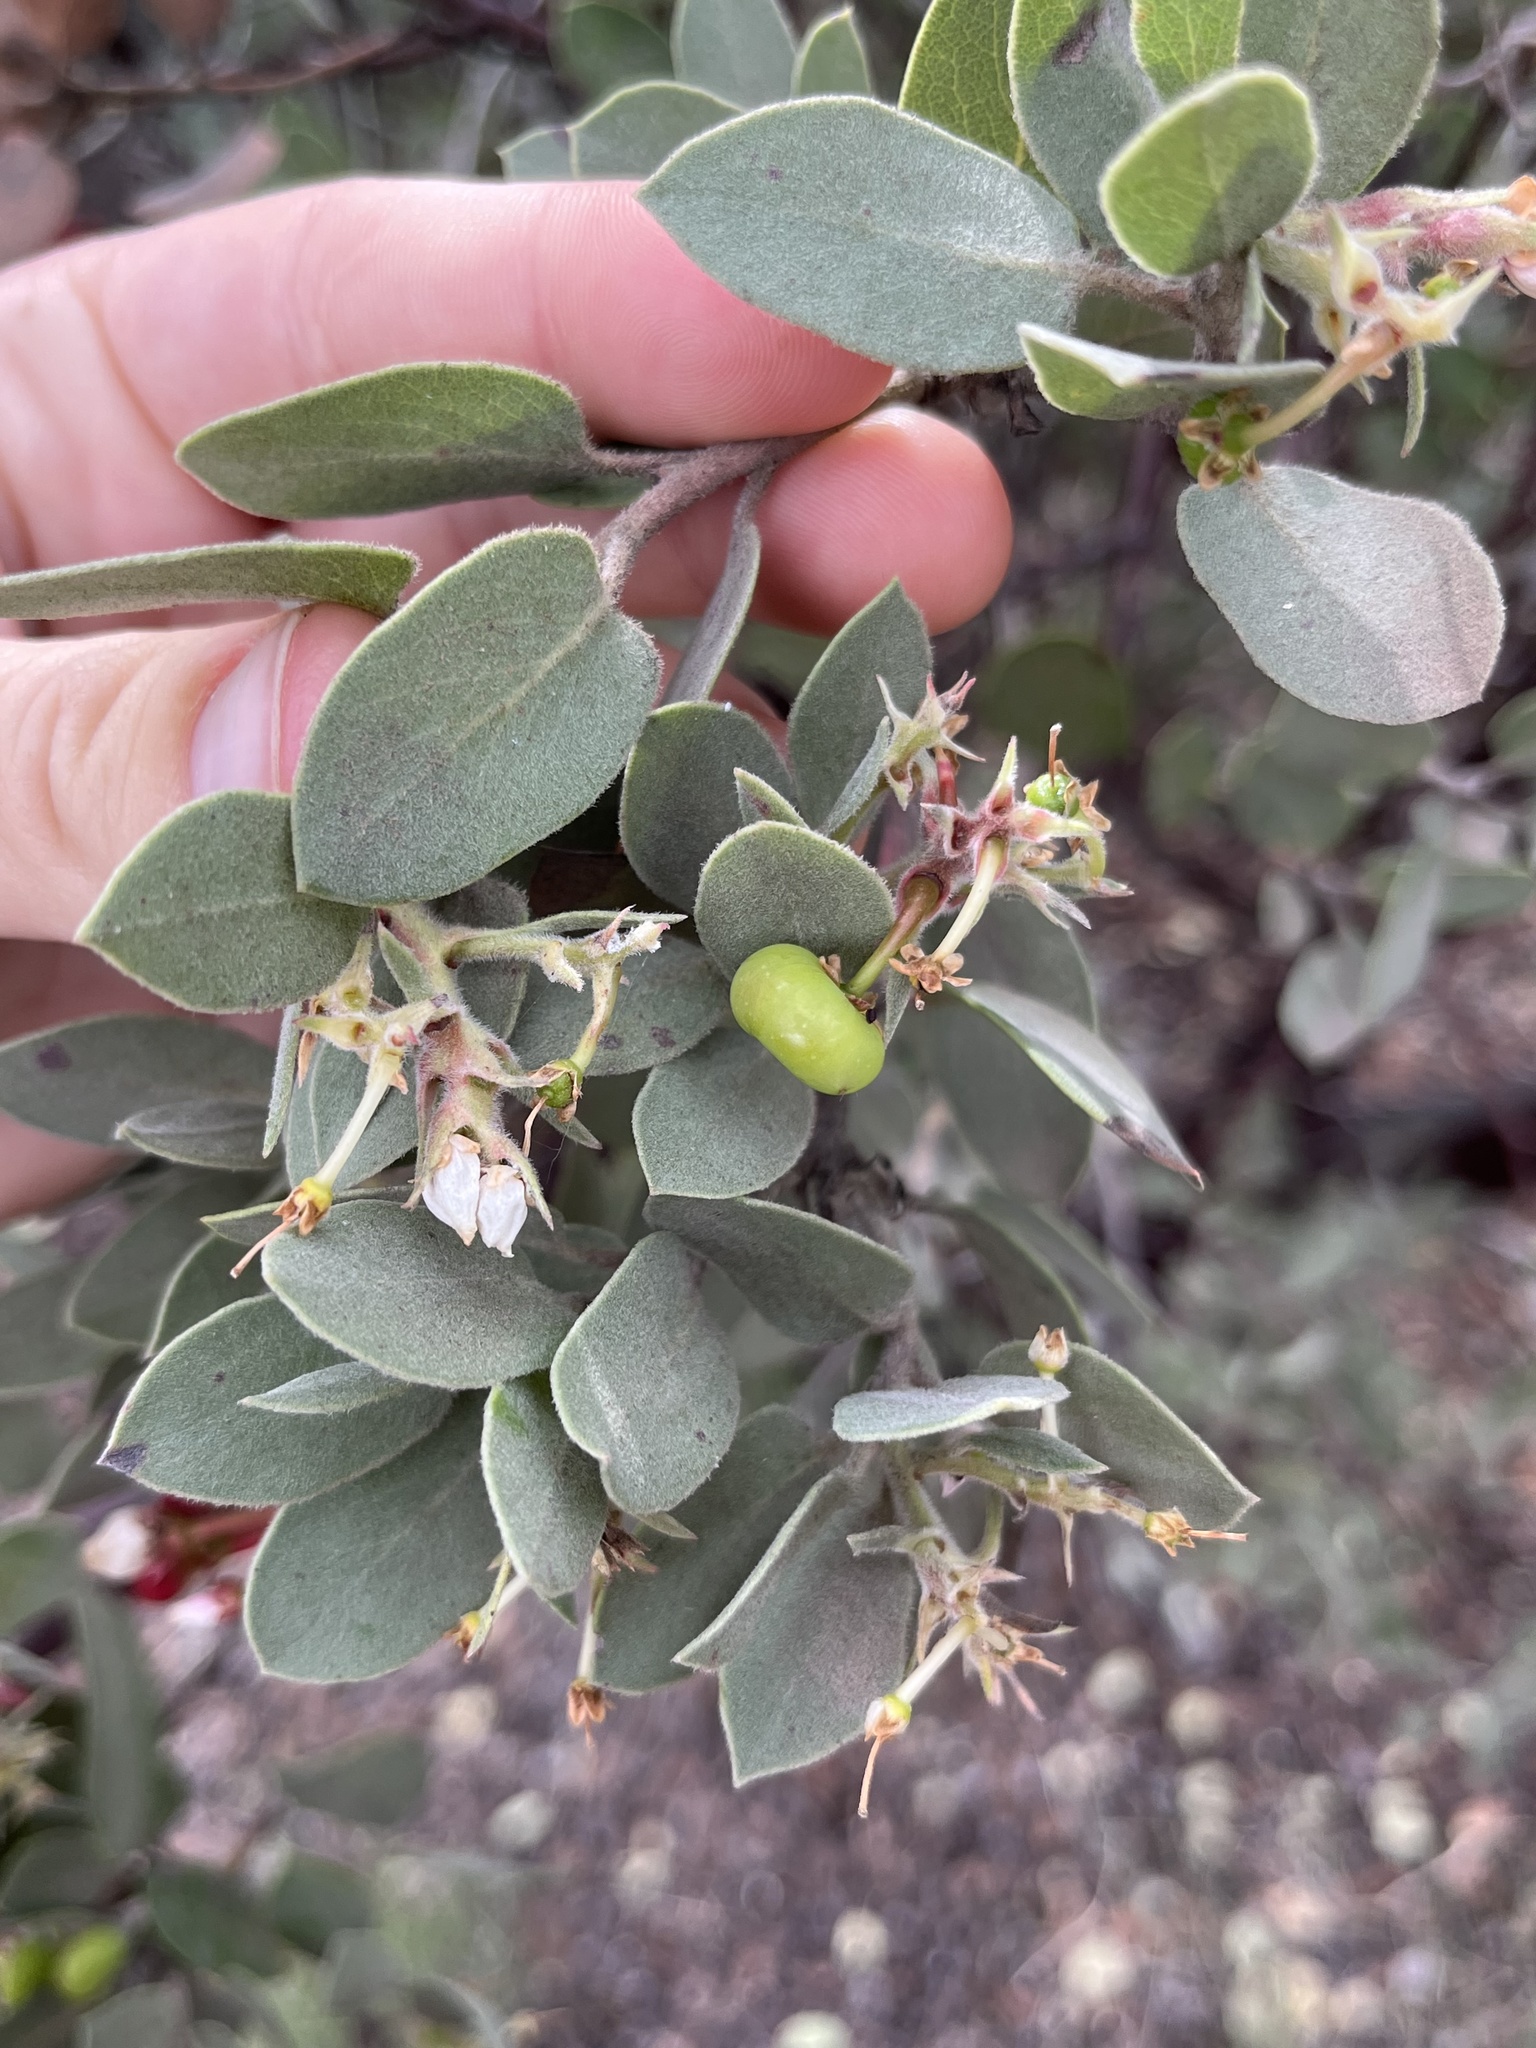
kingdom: Plantae
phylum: Tracheophyta
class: Magnoliopsida
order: Ericales
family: Ericaceae
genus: Arctostaphylos
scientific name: Arctostaphylos obispoensis
